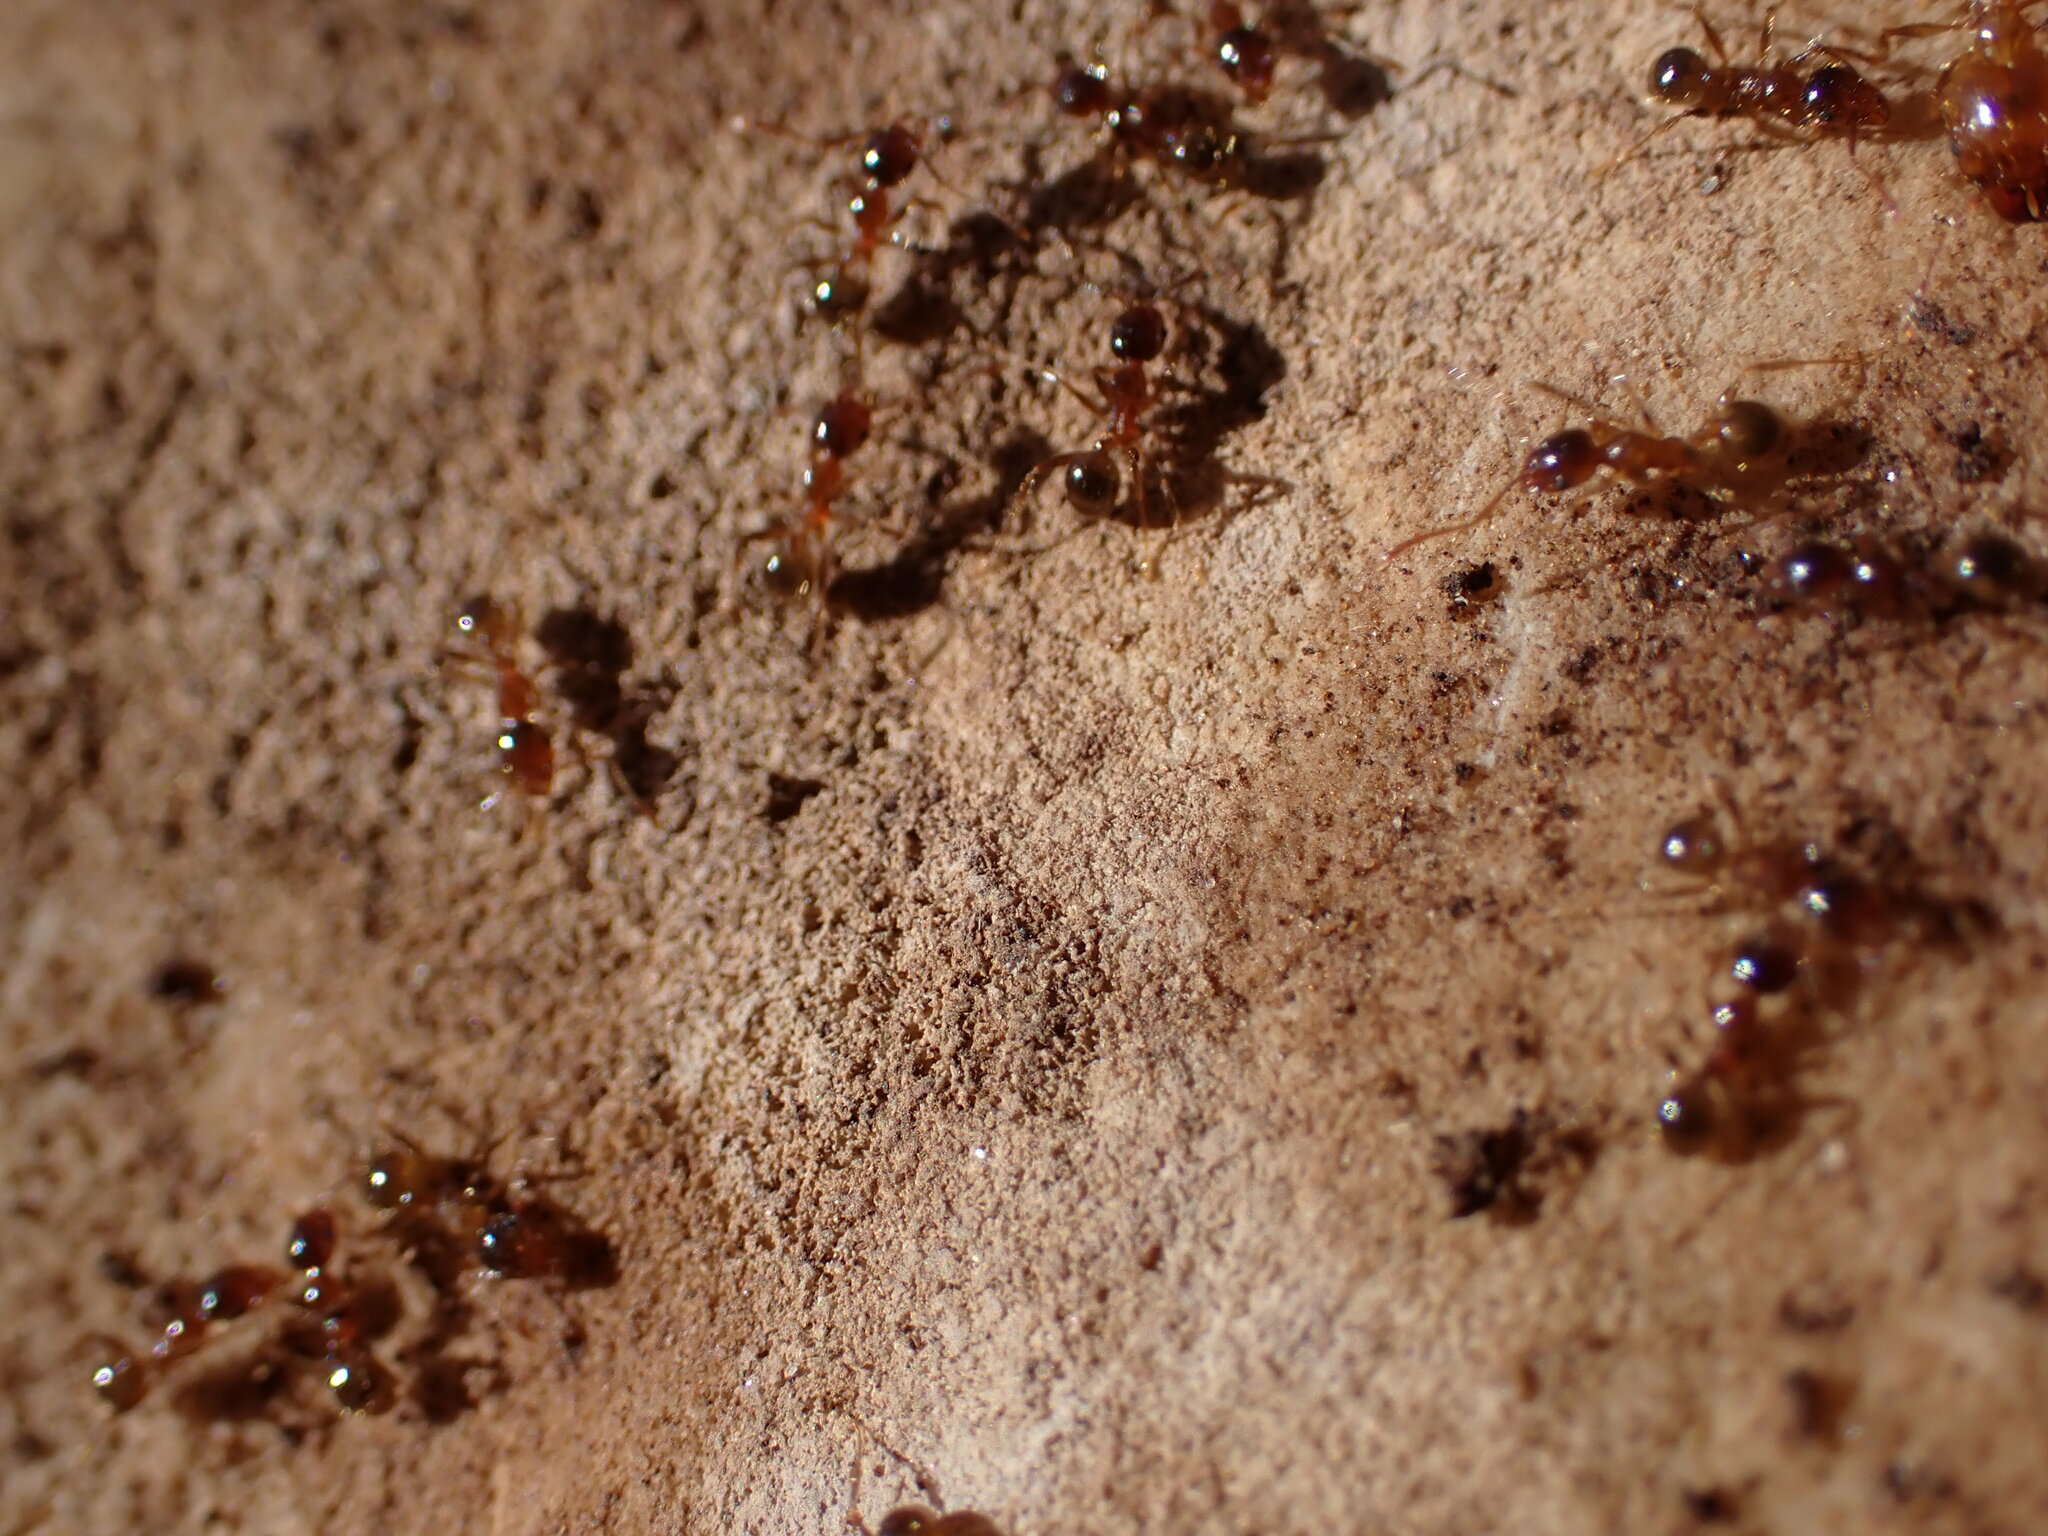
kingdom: Animalia
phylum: Arthropoda
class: Insecta
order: Hymenoptera
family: Formicidae
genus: Pheidole
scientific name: Pheidole pallidula
